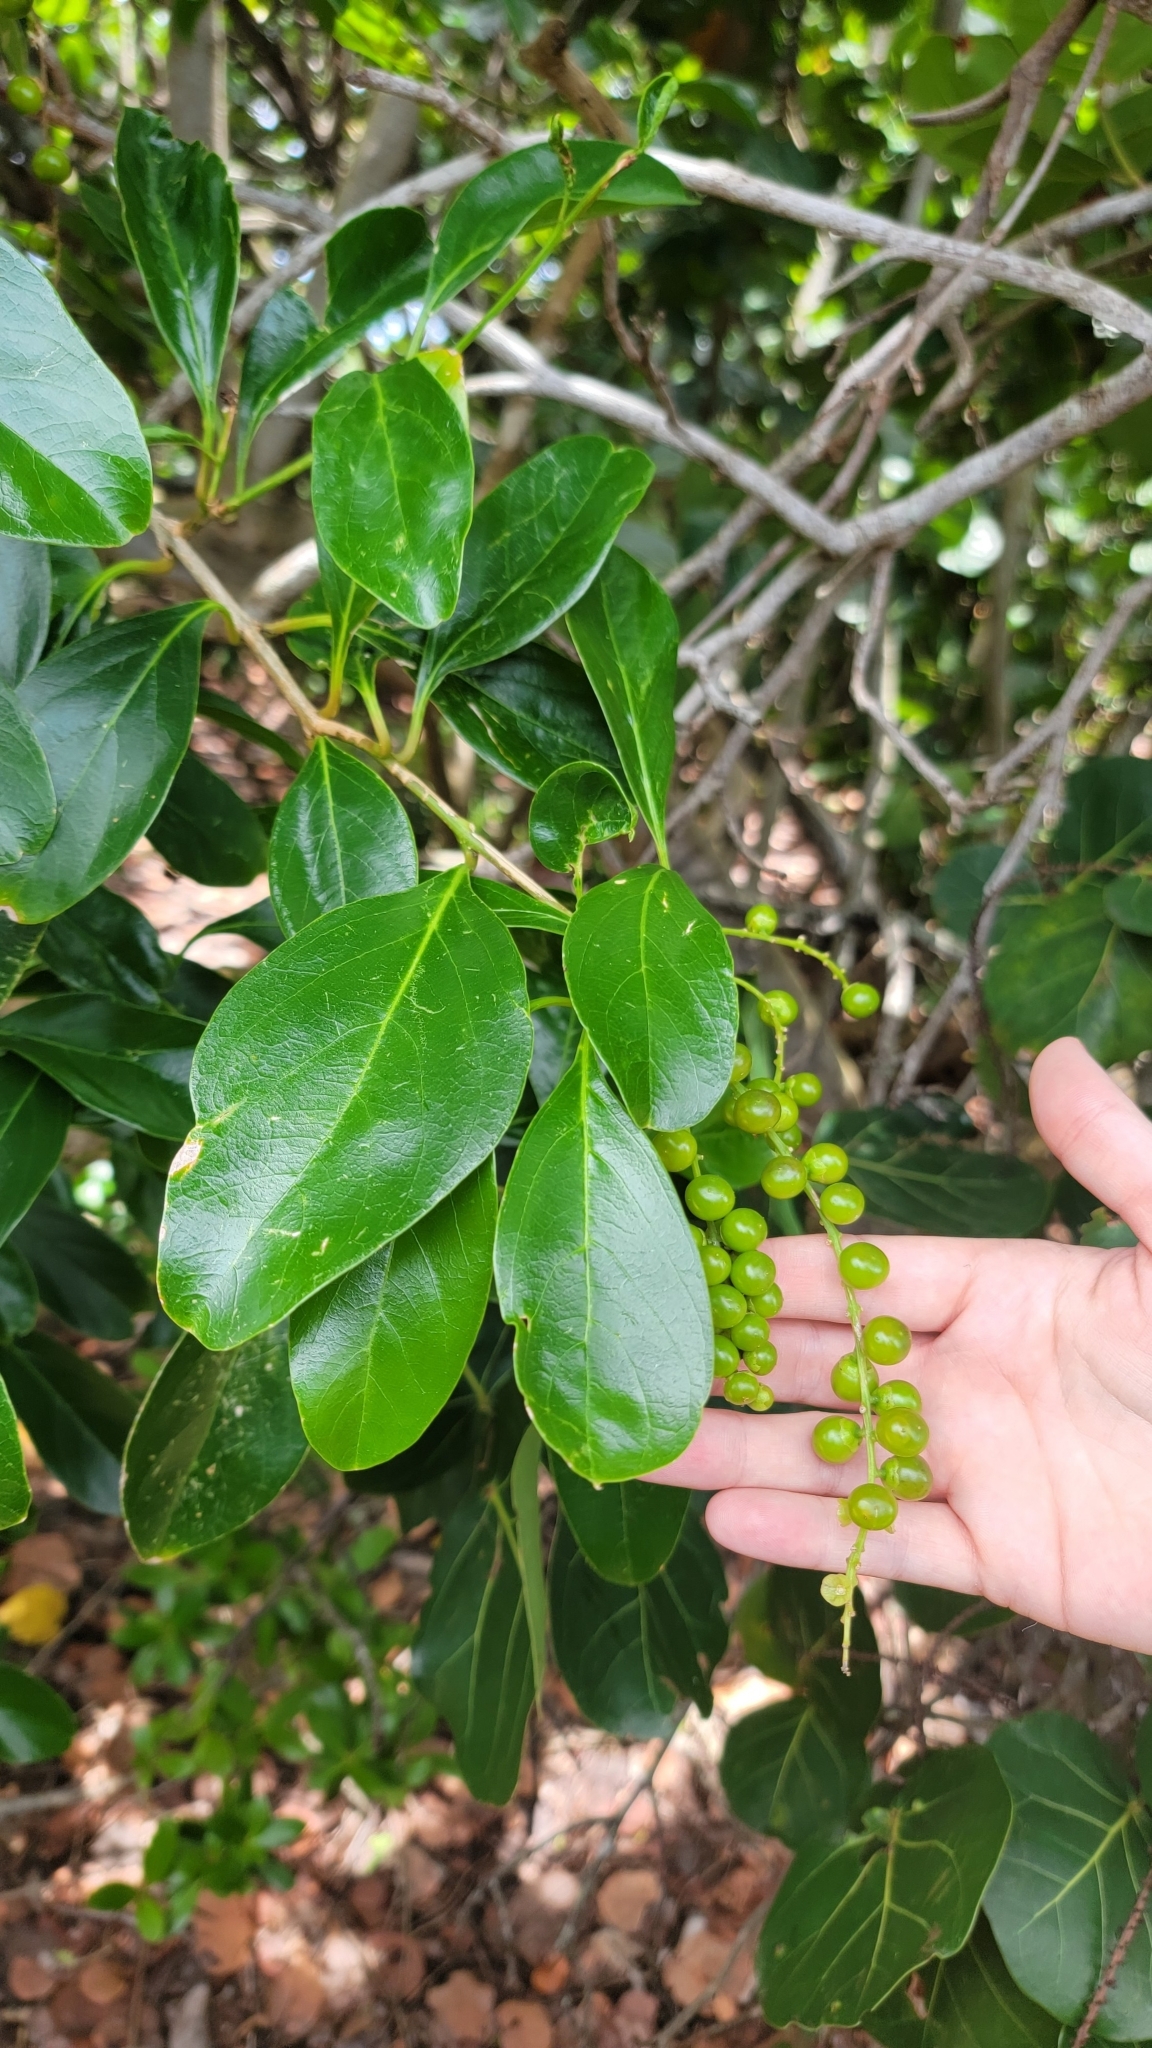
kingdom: Plantae
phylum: Tracheophyta
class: Magnoliopsida
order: Lamiales
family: Verbenaceae
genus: Citharexylum
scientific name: Citharexylum spinosum
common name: Fiddlewood
